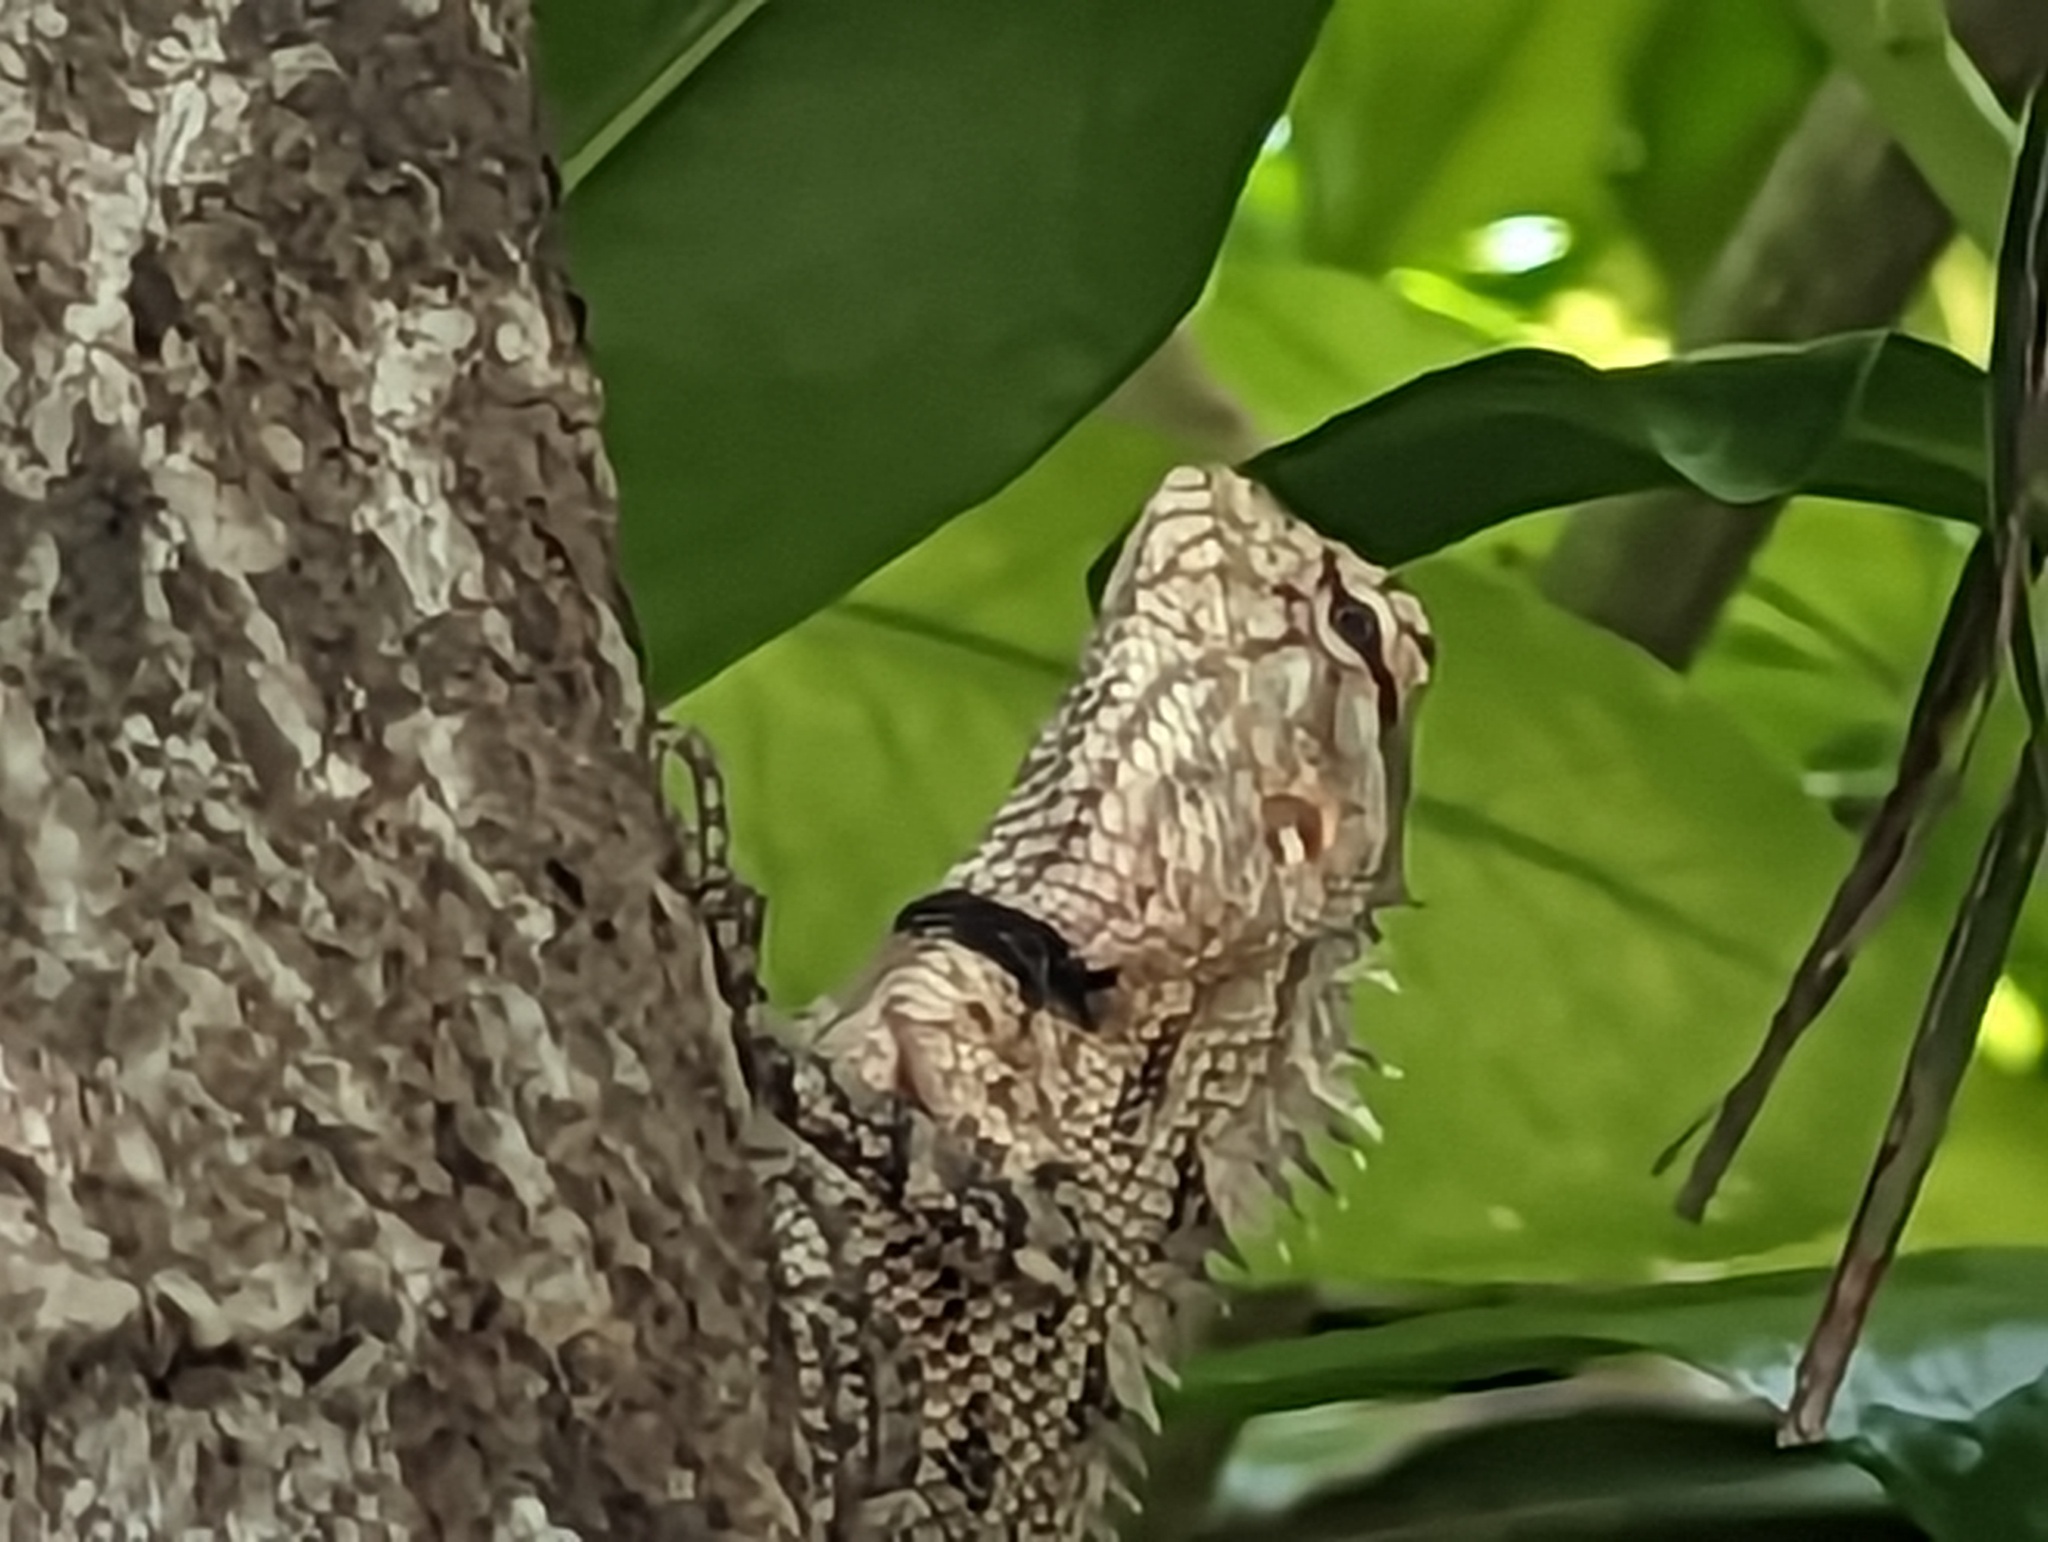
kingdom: Animalia
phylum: Chordata
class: Squamata
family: Agamidae
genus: Calotes
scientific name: Calotes versicolor
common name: Oriental garden lizard
